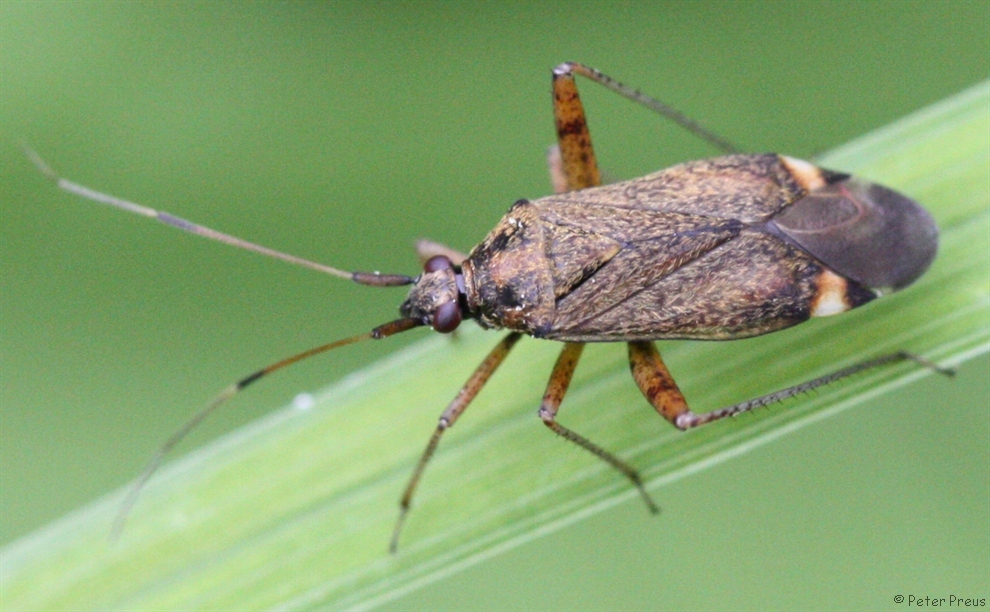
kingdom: Animalia
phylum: Arthropoda
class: Insecta
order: Hemiptera
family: Miridae
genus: Closterotomus
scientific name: Closterotomus fulvomaculatus
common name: Spotted plant bug
